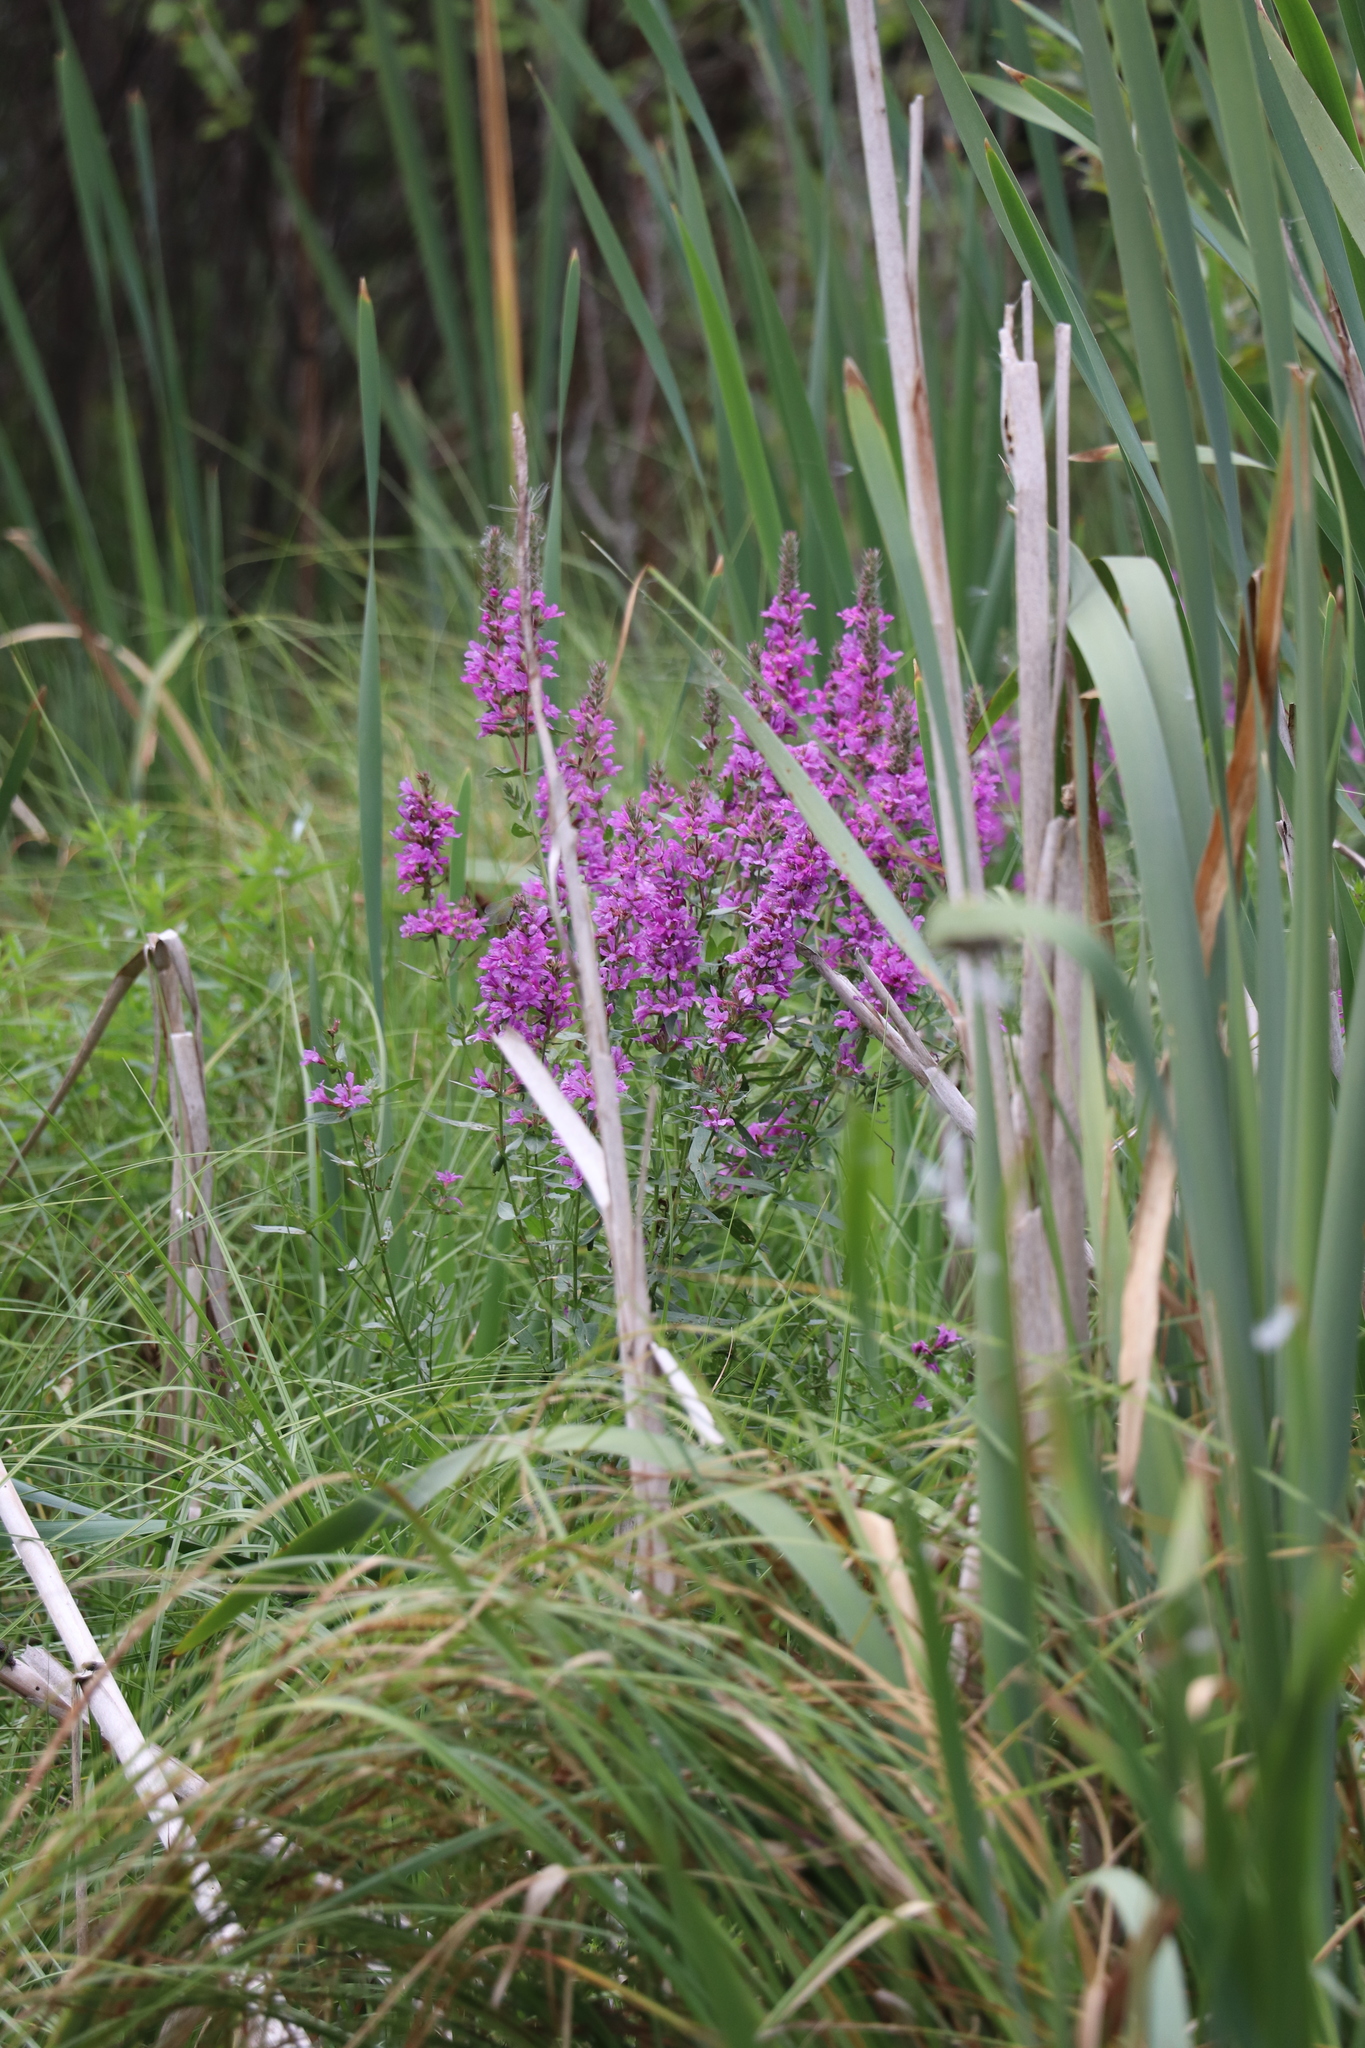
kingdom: Plantae
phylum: Tracheophyta
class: Magnoliopsida
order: Myrtales
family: Lythraceae
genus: Lythrum
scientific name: Lythrum salicaria
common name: Purple loosestrife
